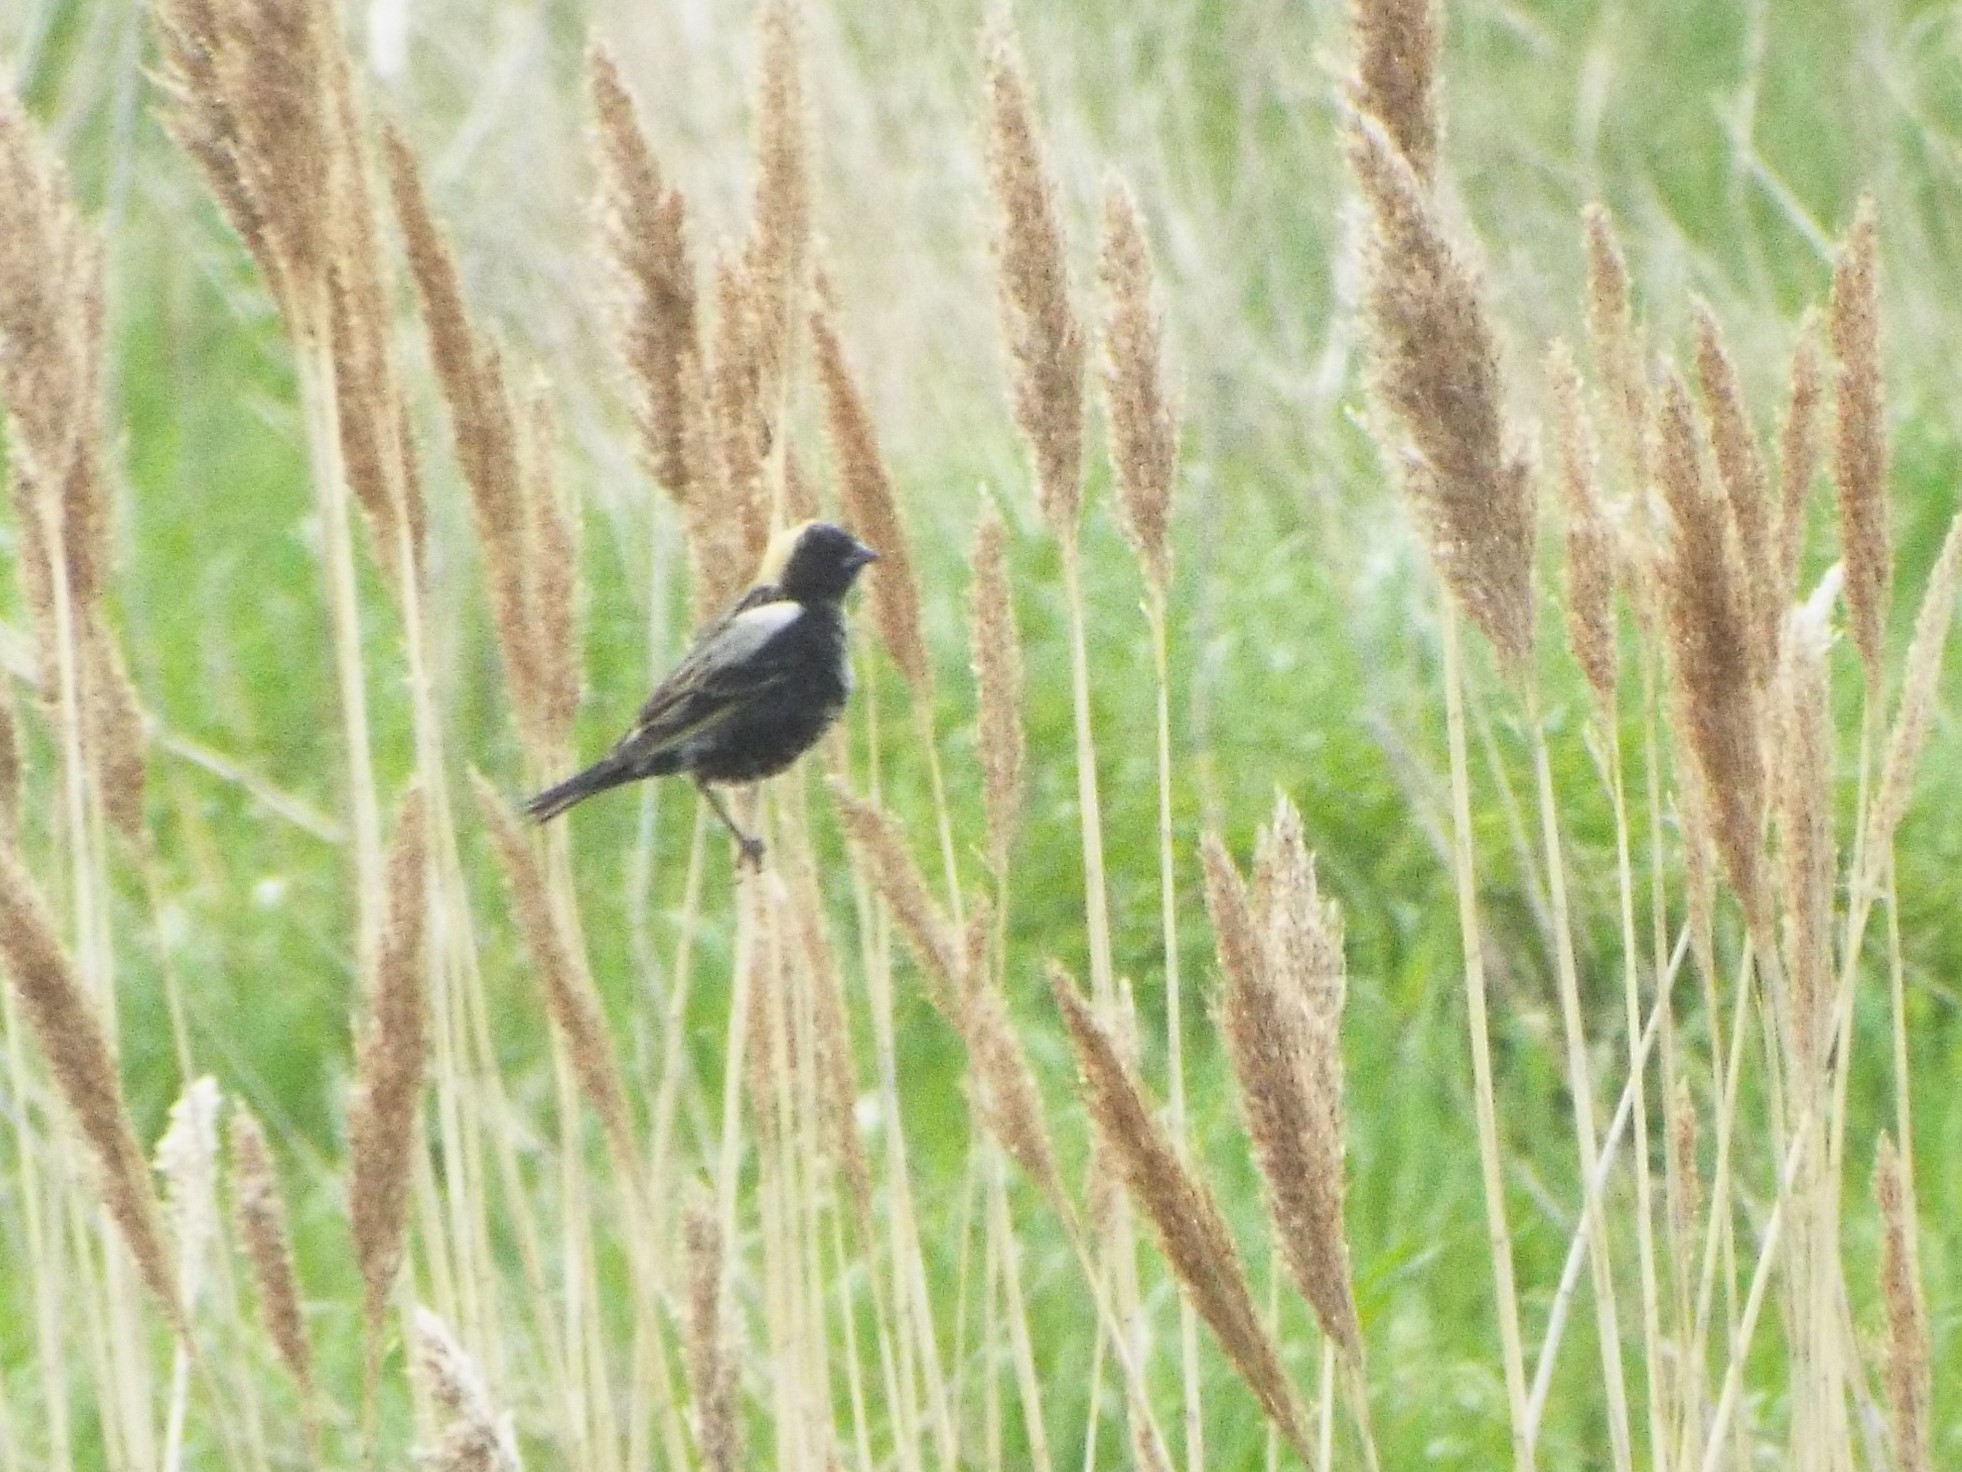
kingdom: Animalia
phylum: Chordata
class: Aves
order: Passeriformes
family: Icteridae
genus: Dolichonyx
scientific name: Dolichonyx oryzivorus
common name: Bobolink
